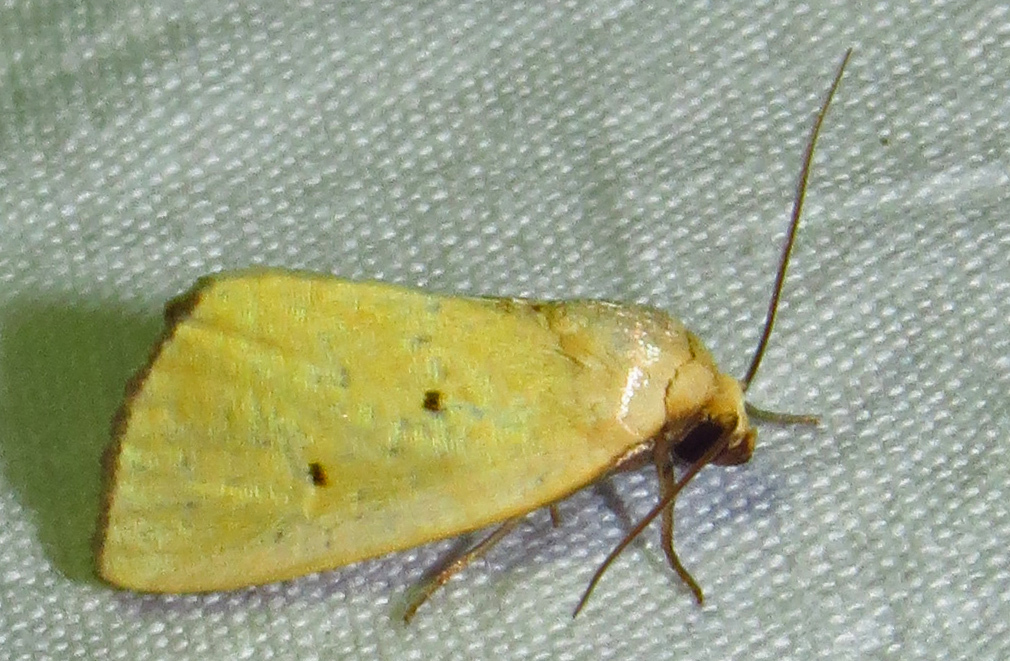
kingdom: Animalia
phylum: Arthropoda
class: Insecta
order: Lepidoptera
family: Noctuidae
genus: Marimatha
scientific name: Marimatha nigrofimbria
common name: Black-bordered lemon moth
